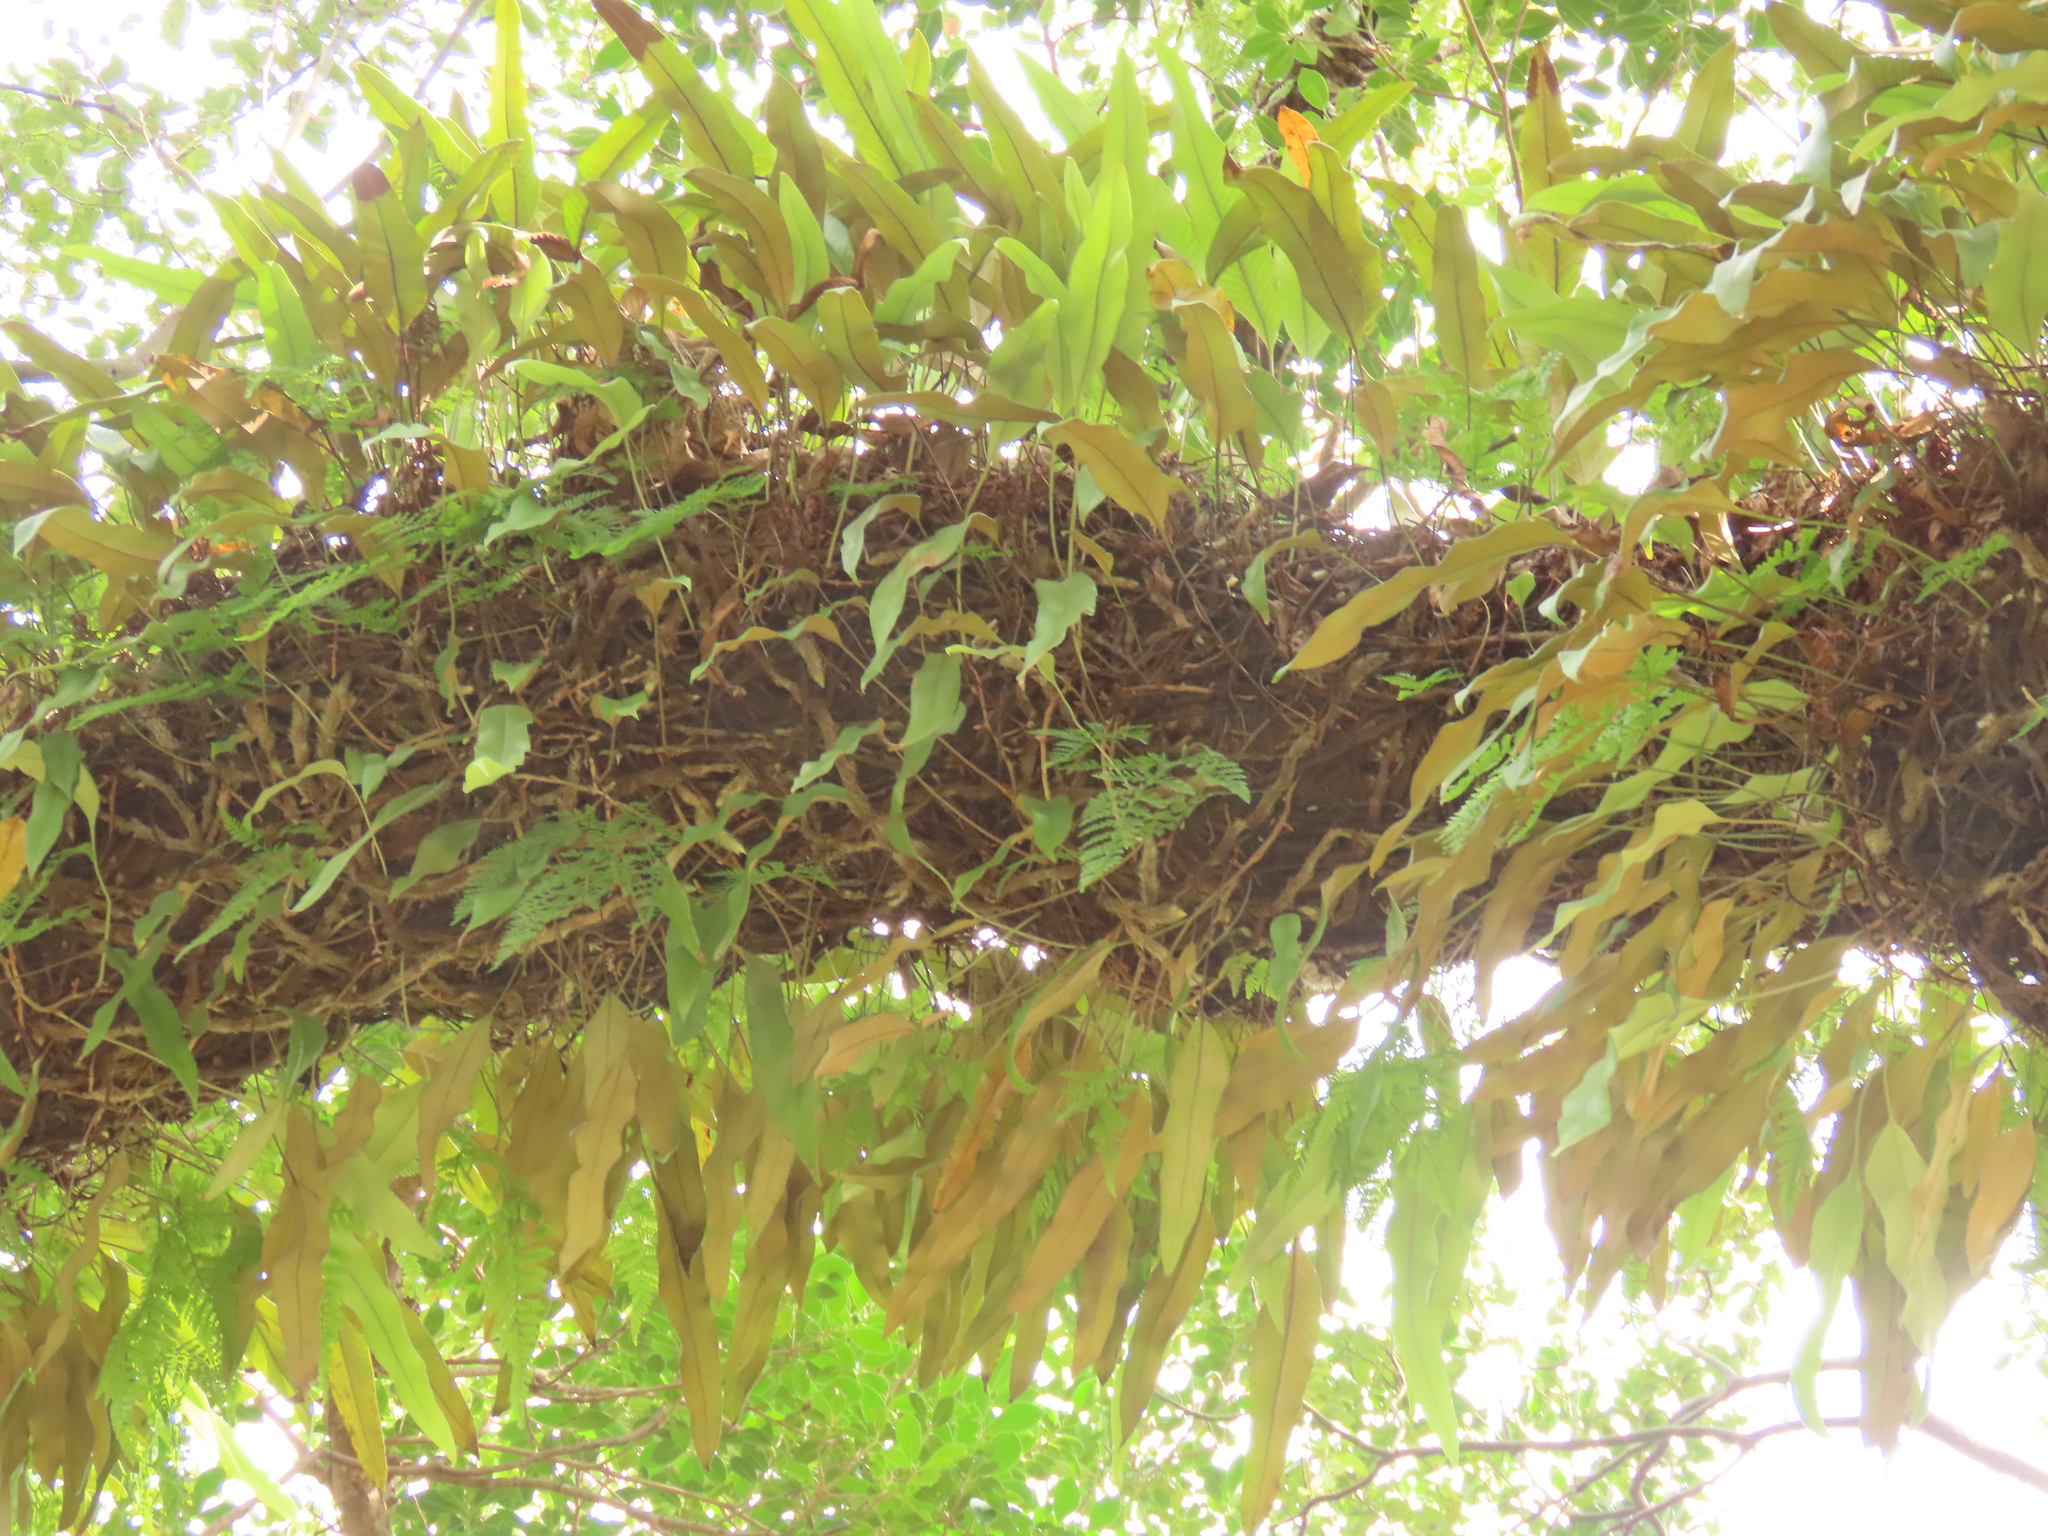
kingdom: Plantae
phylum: Tracheophyta
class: Polypodiopsida
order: Polypodiales
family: Polypodiaceae
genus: Pyrrosia
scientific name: Pyrrosia lingua
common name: Felt fern
